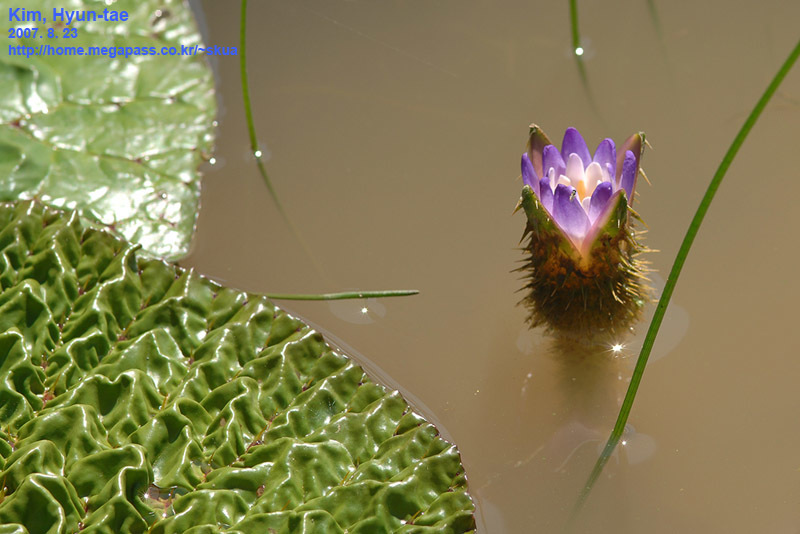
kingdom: Plantae
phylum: Tracheophyta
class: Magnoliopsida
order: Nymphaeales
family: Nymphaeaceae
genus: Euryale
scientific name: Euryale ferox
